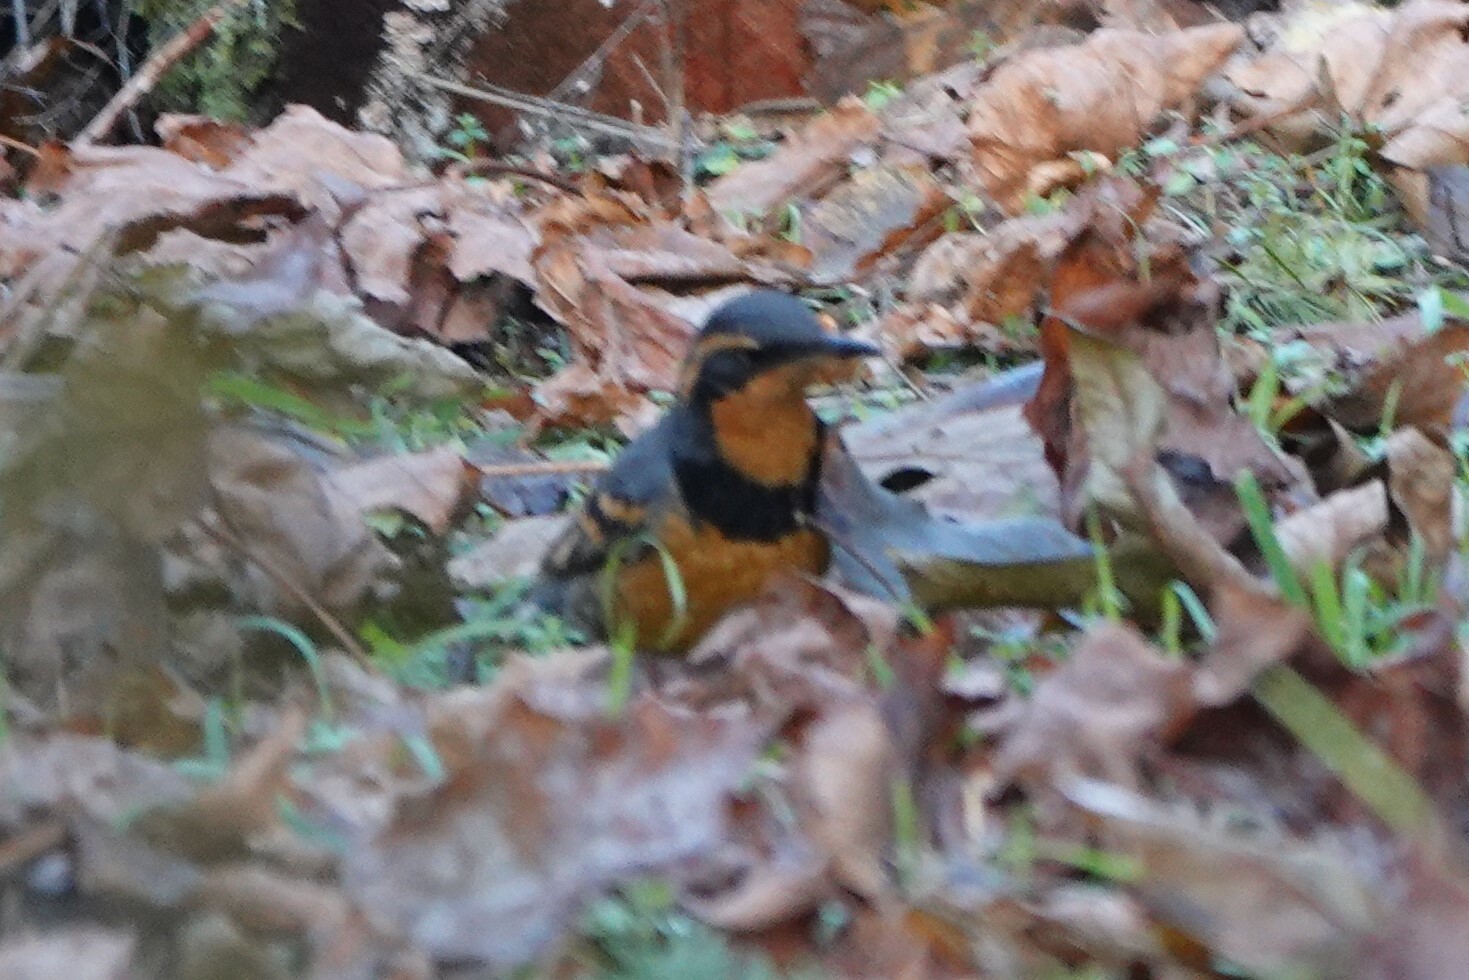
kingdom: Animalia
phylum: Chordata
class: Aves
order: Passeriformes
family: Turdidae
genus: Ixoreus
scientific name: Ixoreus naevius
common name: Varied thrush
